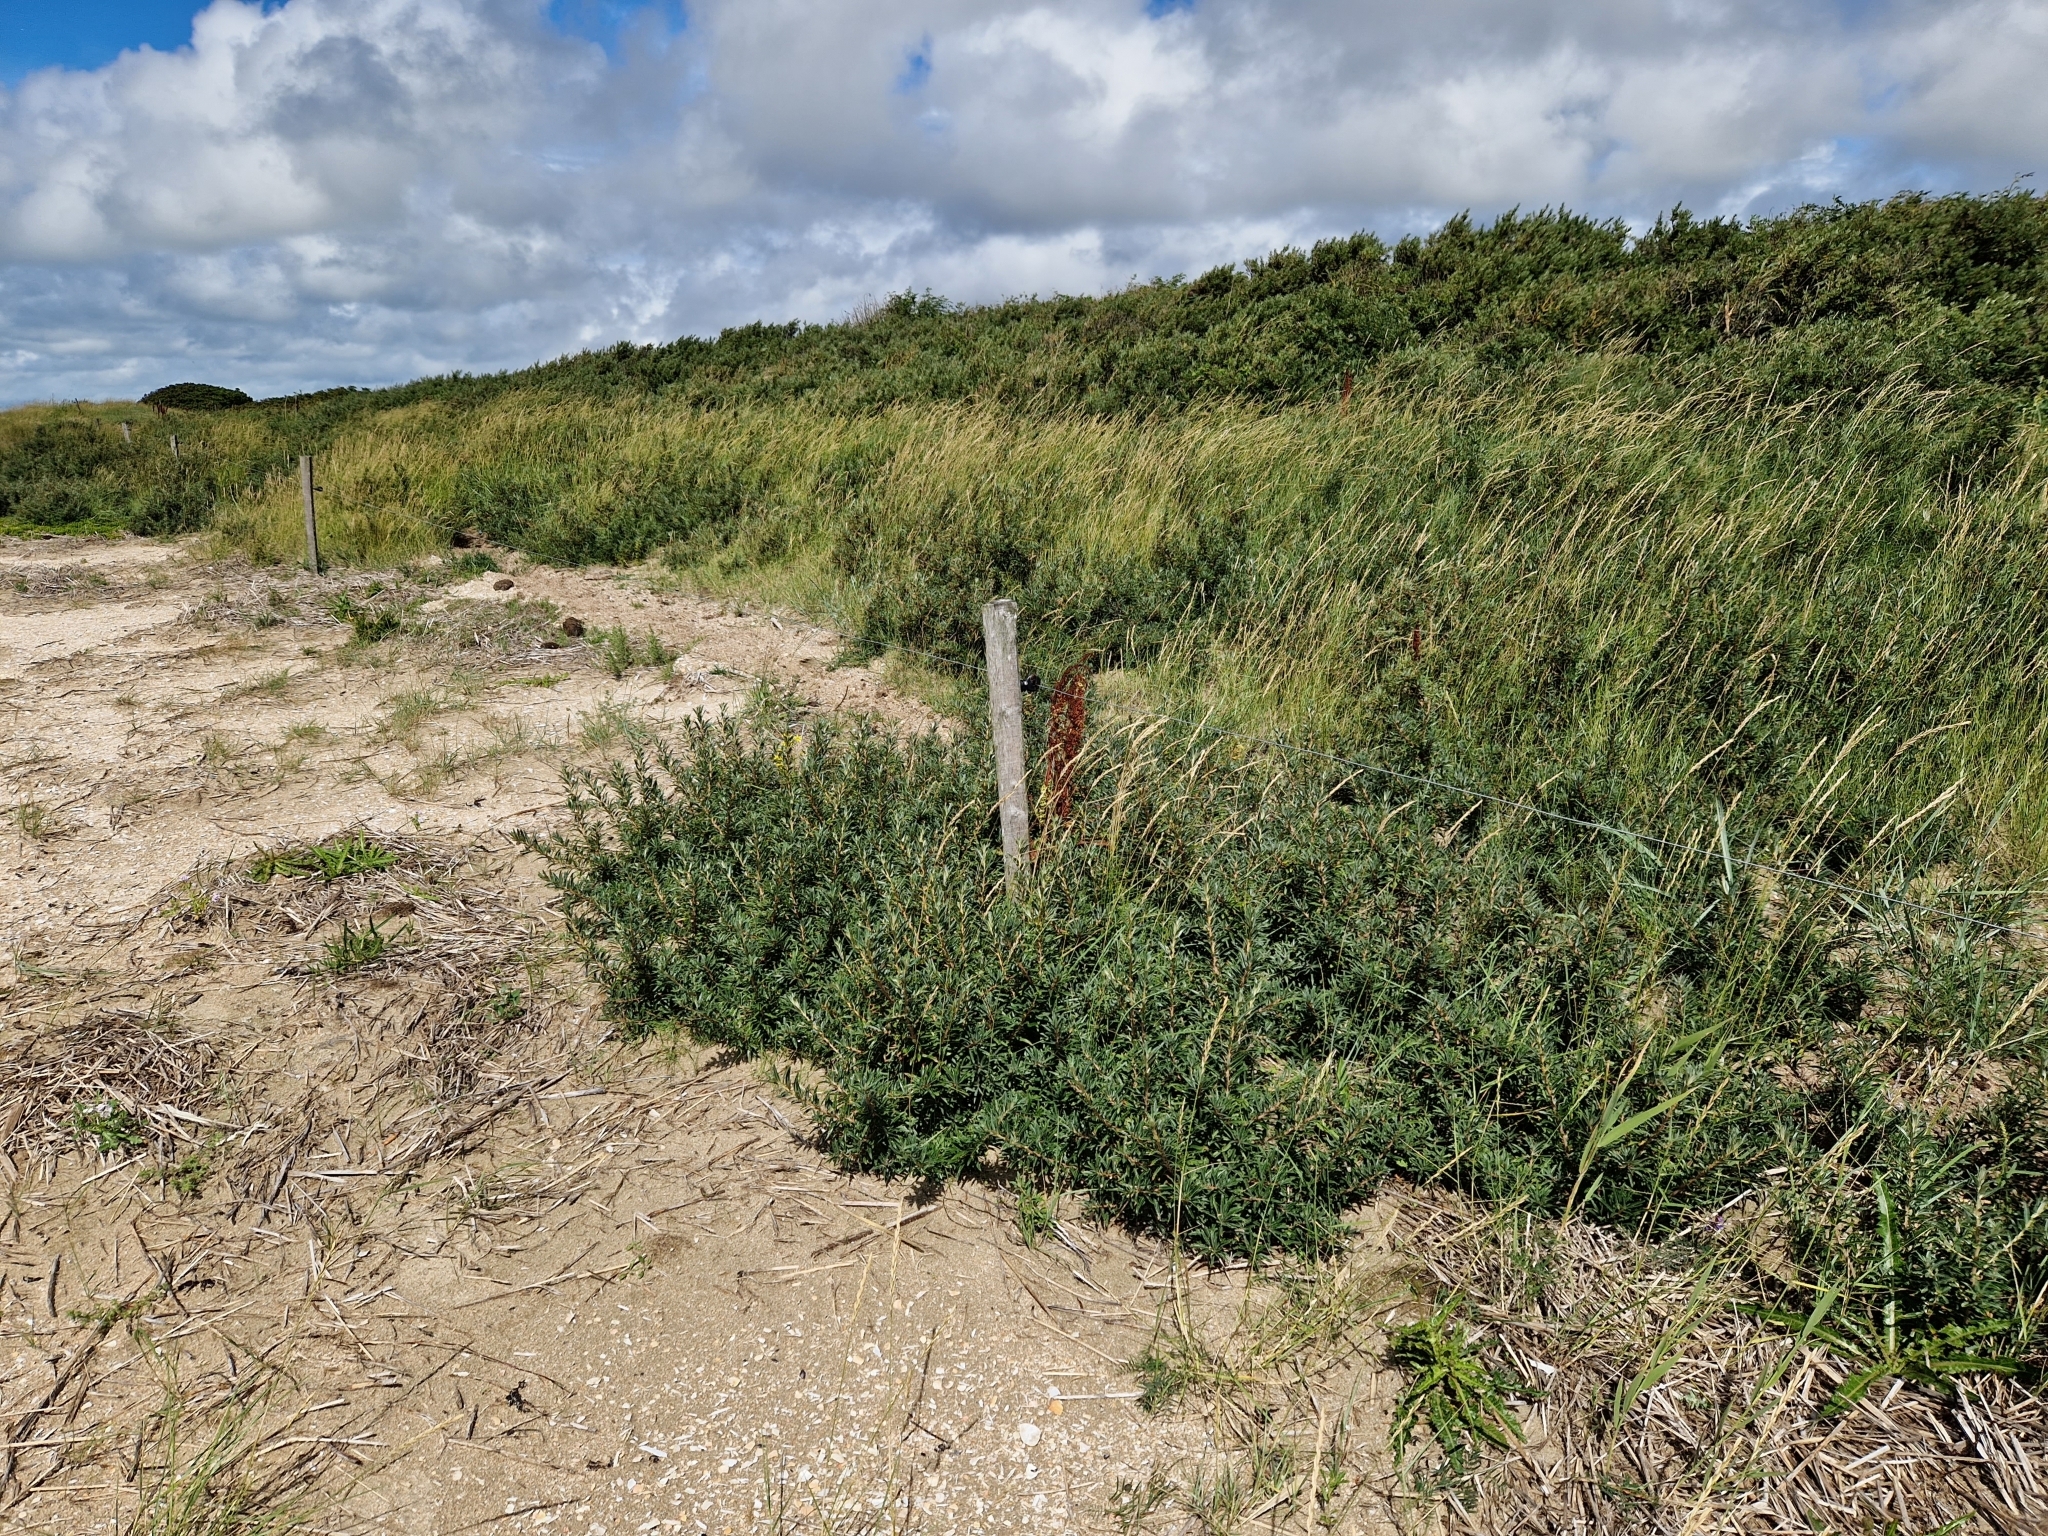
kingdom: Plantae
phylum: Tracheophyta
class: Magnoliopsida
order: Rosales
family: Elaeagnaceae
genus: Hippophae
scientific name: Hippophae rhamnoides
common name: Sea-buckthorn
